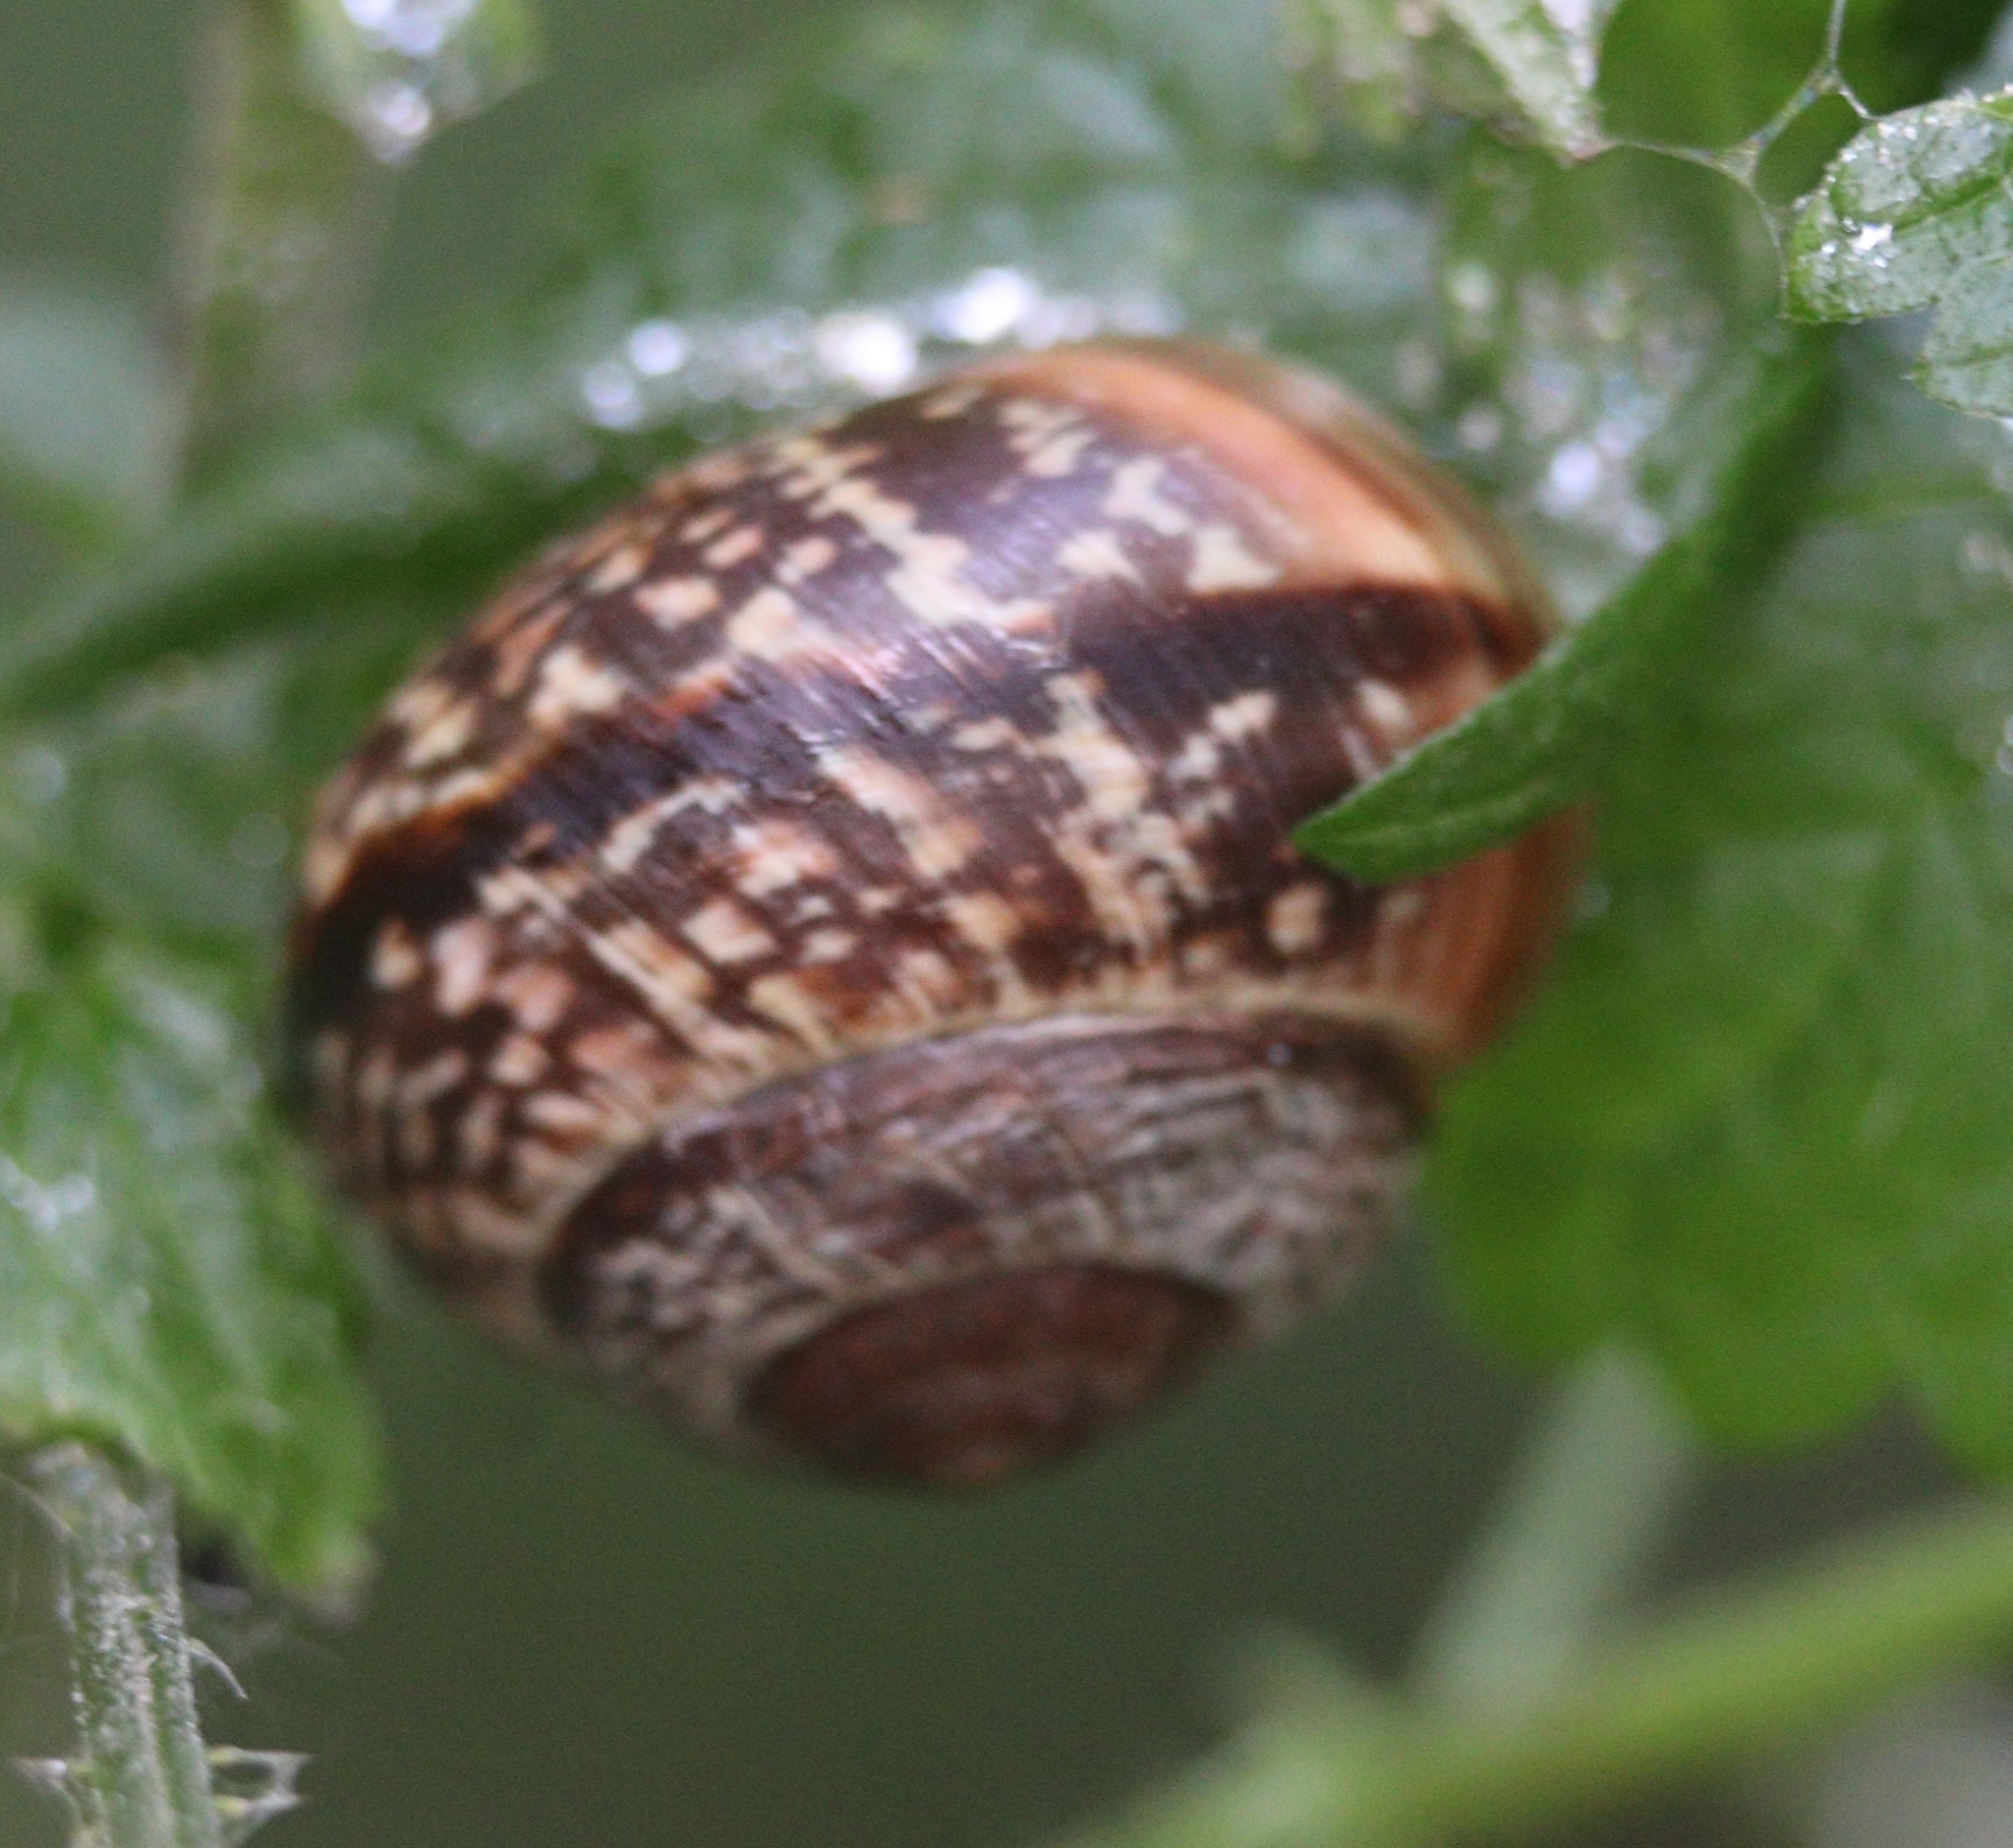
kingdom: Animalia
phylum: Mollusca
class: Gastropoda
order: Stylommatophora
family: Helicidae
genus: Arianta
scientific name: Arianta arbustorum
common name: Copse snail
